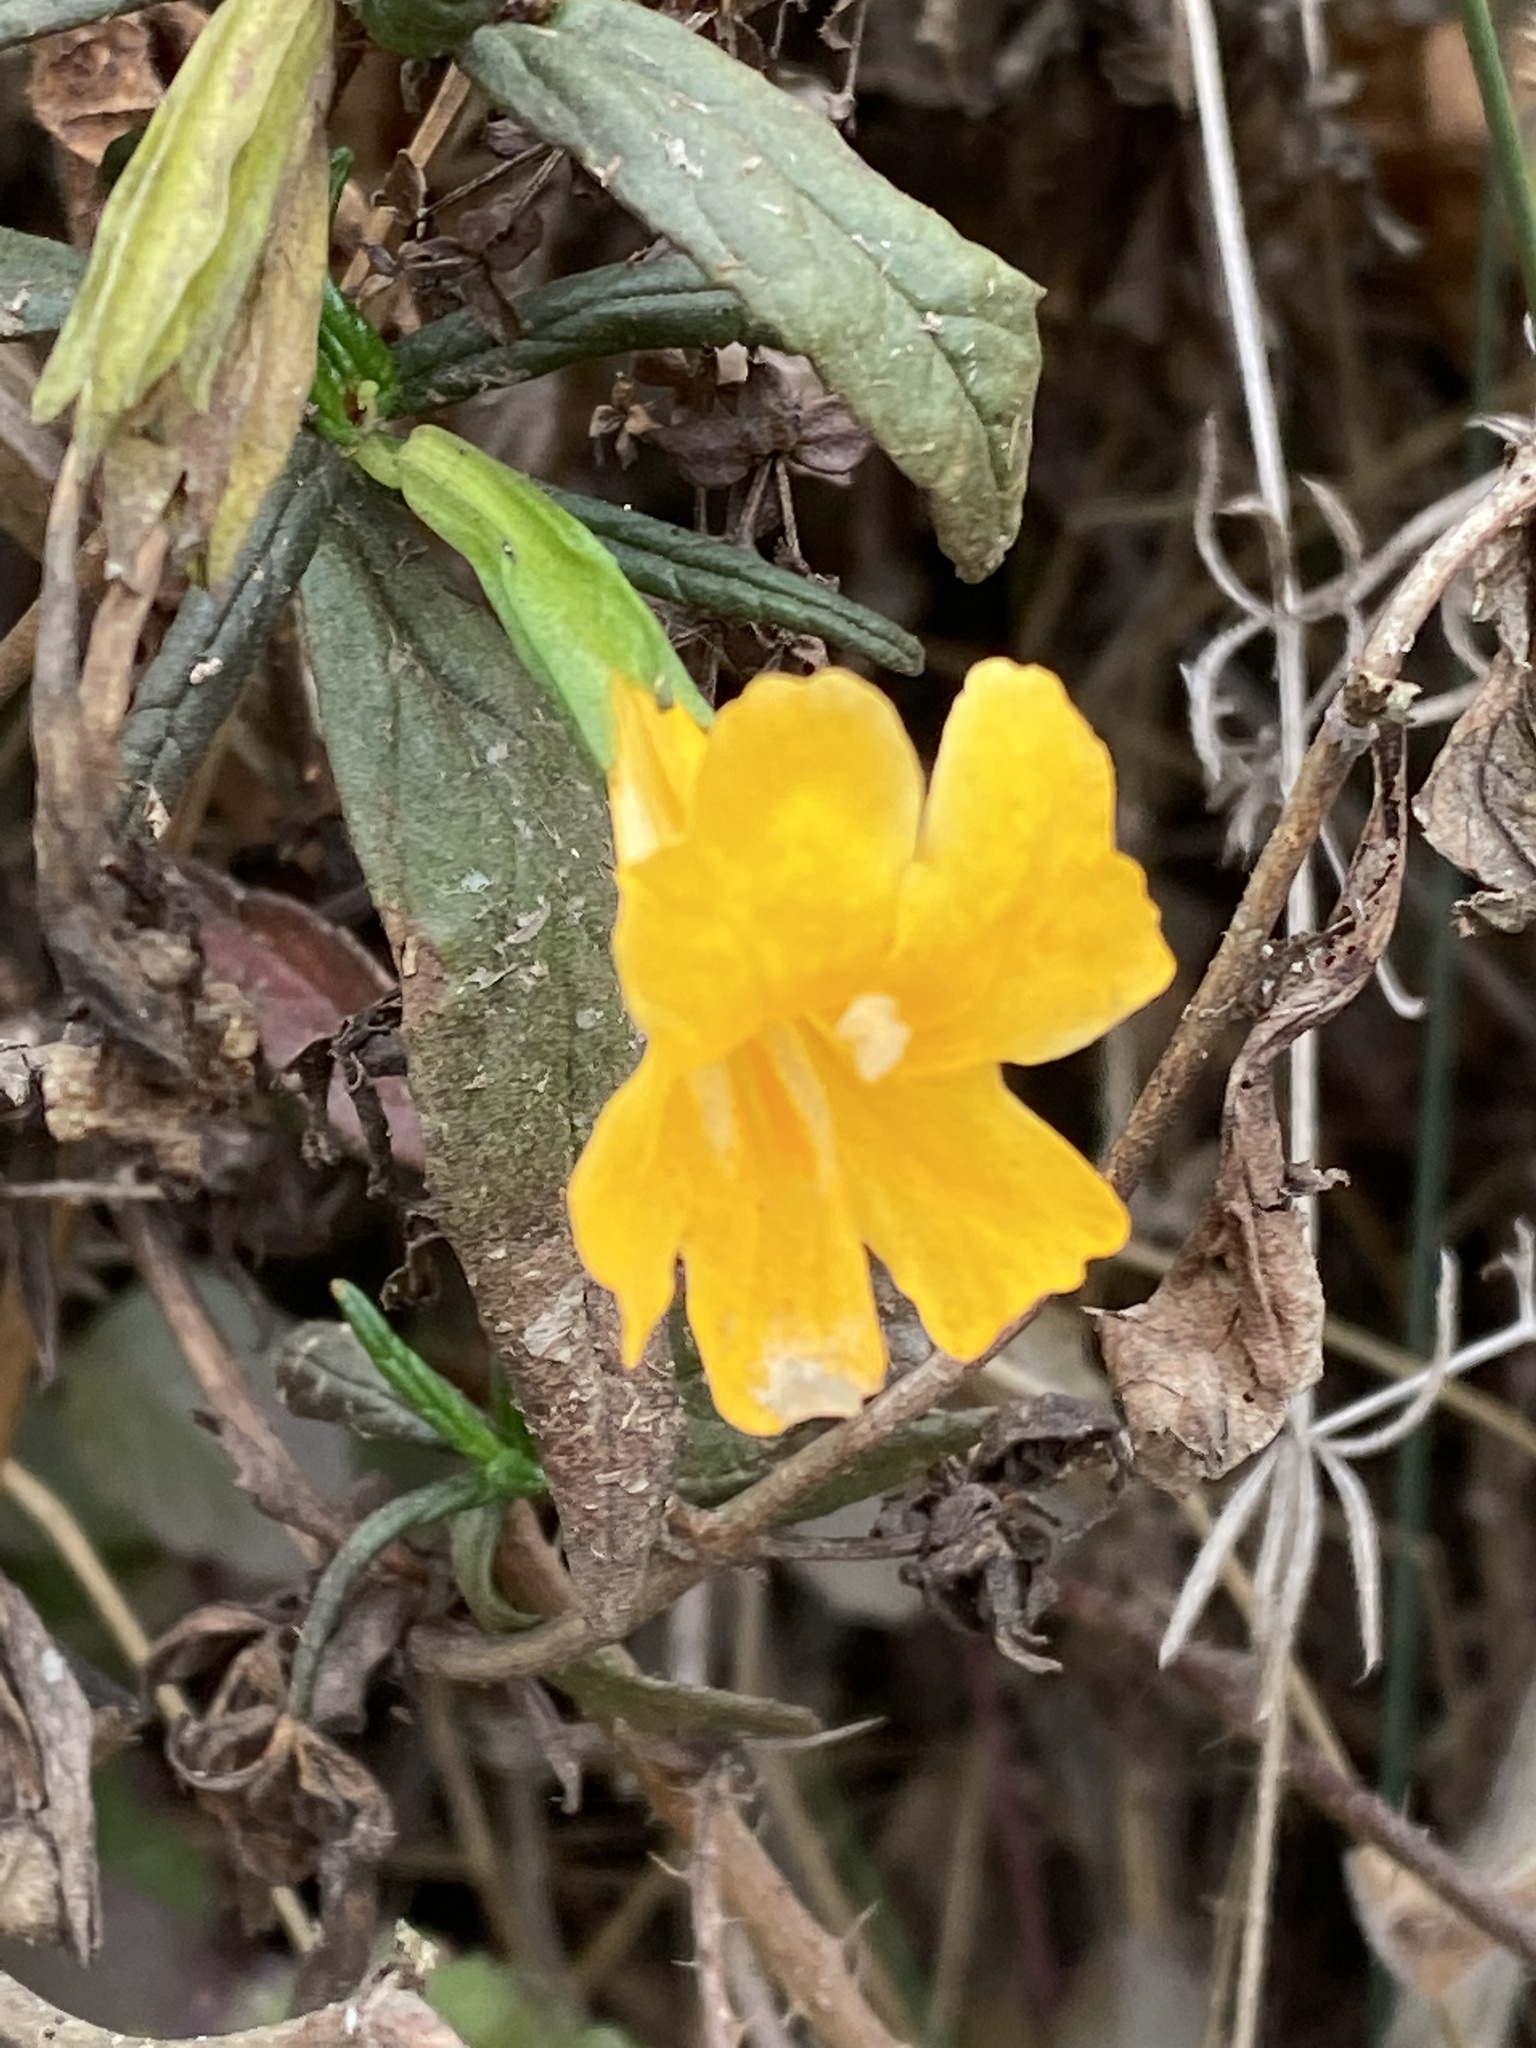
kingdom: Plantae
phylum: Tracheophyta
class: Magnoliopsida
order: Lamiales
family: Phrymaceae
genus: Diplacus
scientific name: Diplacus aurantiacus
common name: Bush monkey-flower
